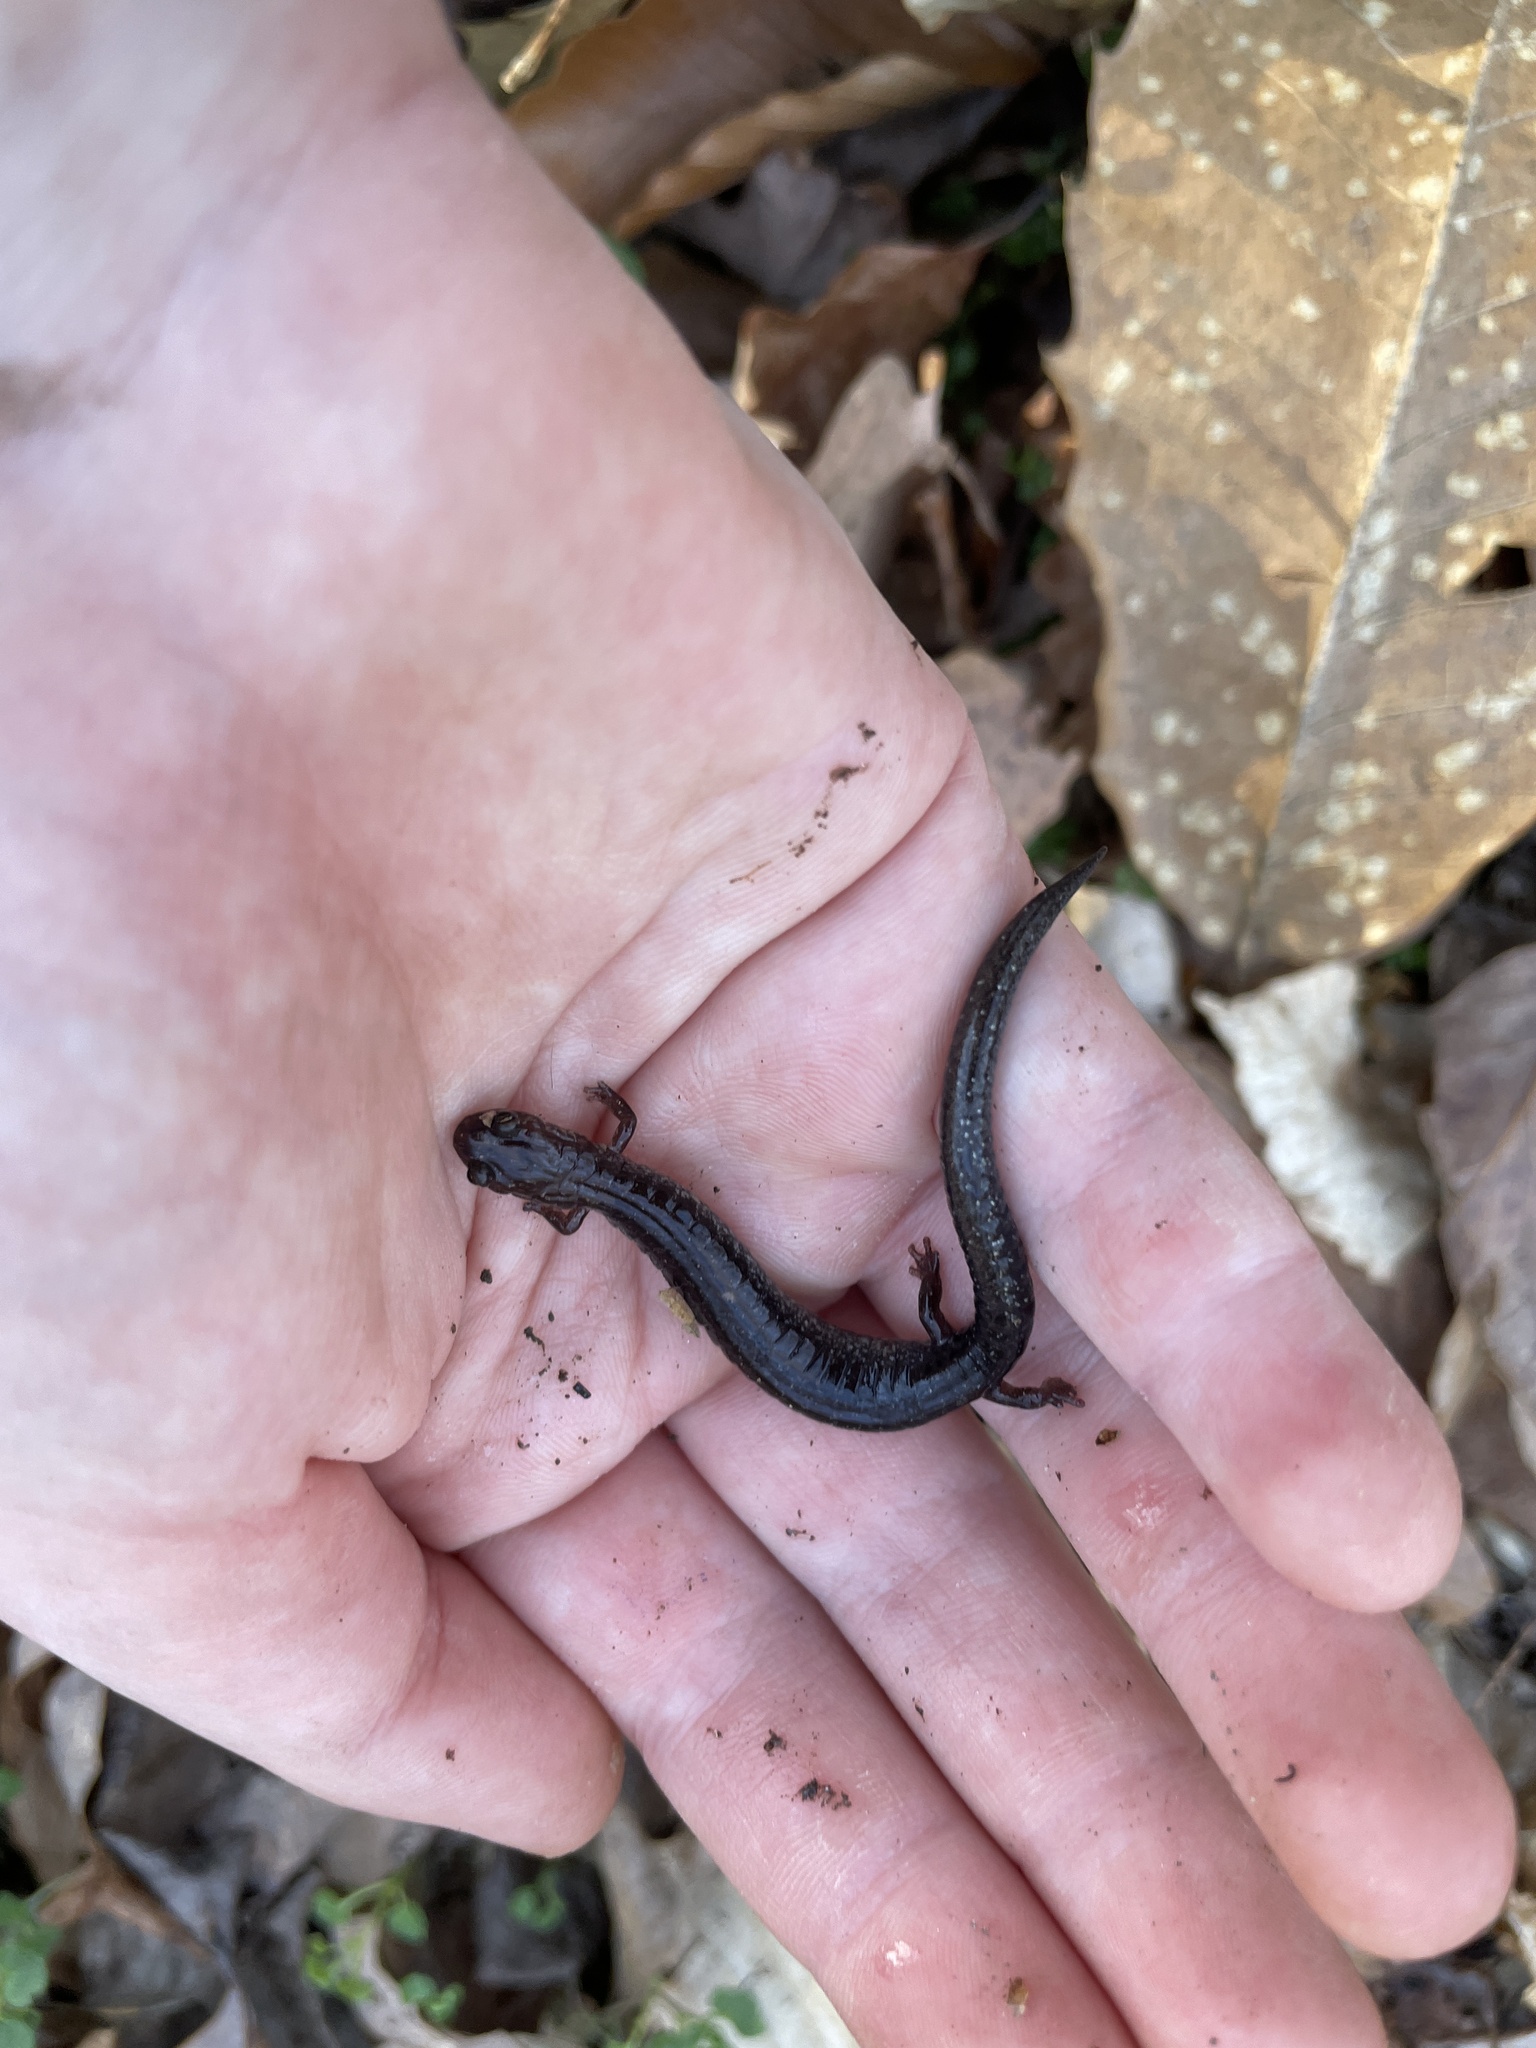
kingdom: Animalia
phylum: Chordata
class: Amphibia
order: Caudata
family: Plethodontidae
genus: Plethodon
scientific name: Plethodon cinereus
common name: Redback salamander
